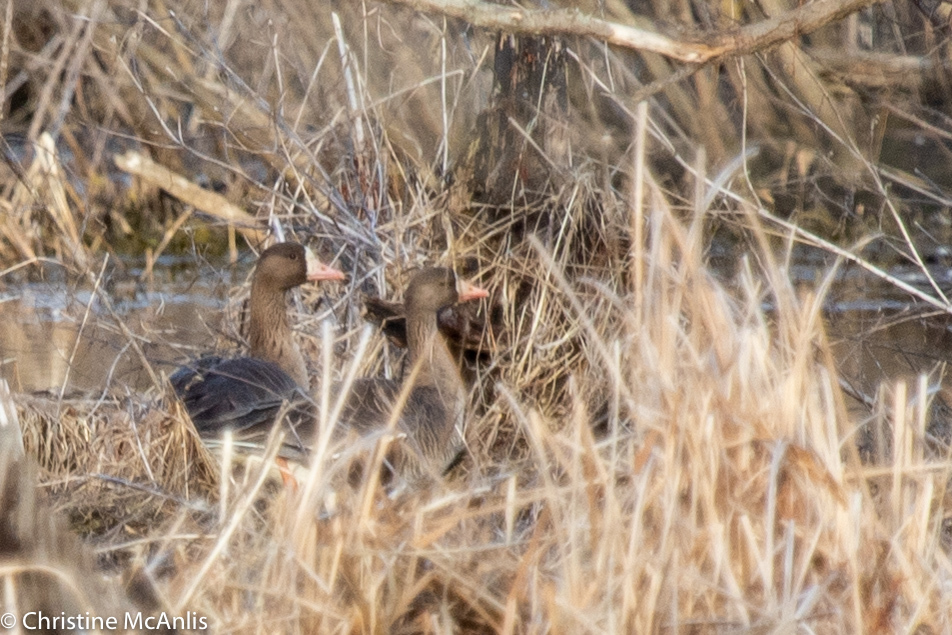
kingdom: Animalia
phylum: Chordata
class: Aves
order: Anseriformes
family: Anatidae
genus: Anser
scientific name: Anser albifrons
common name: Greater white-fronted goose
